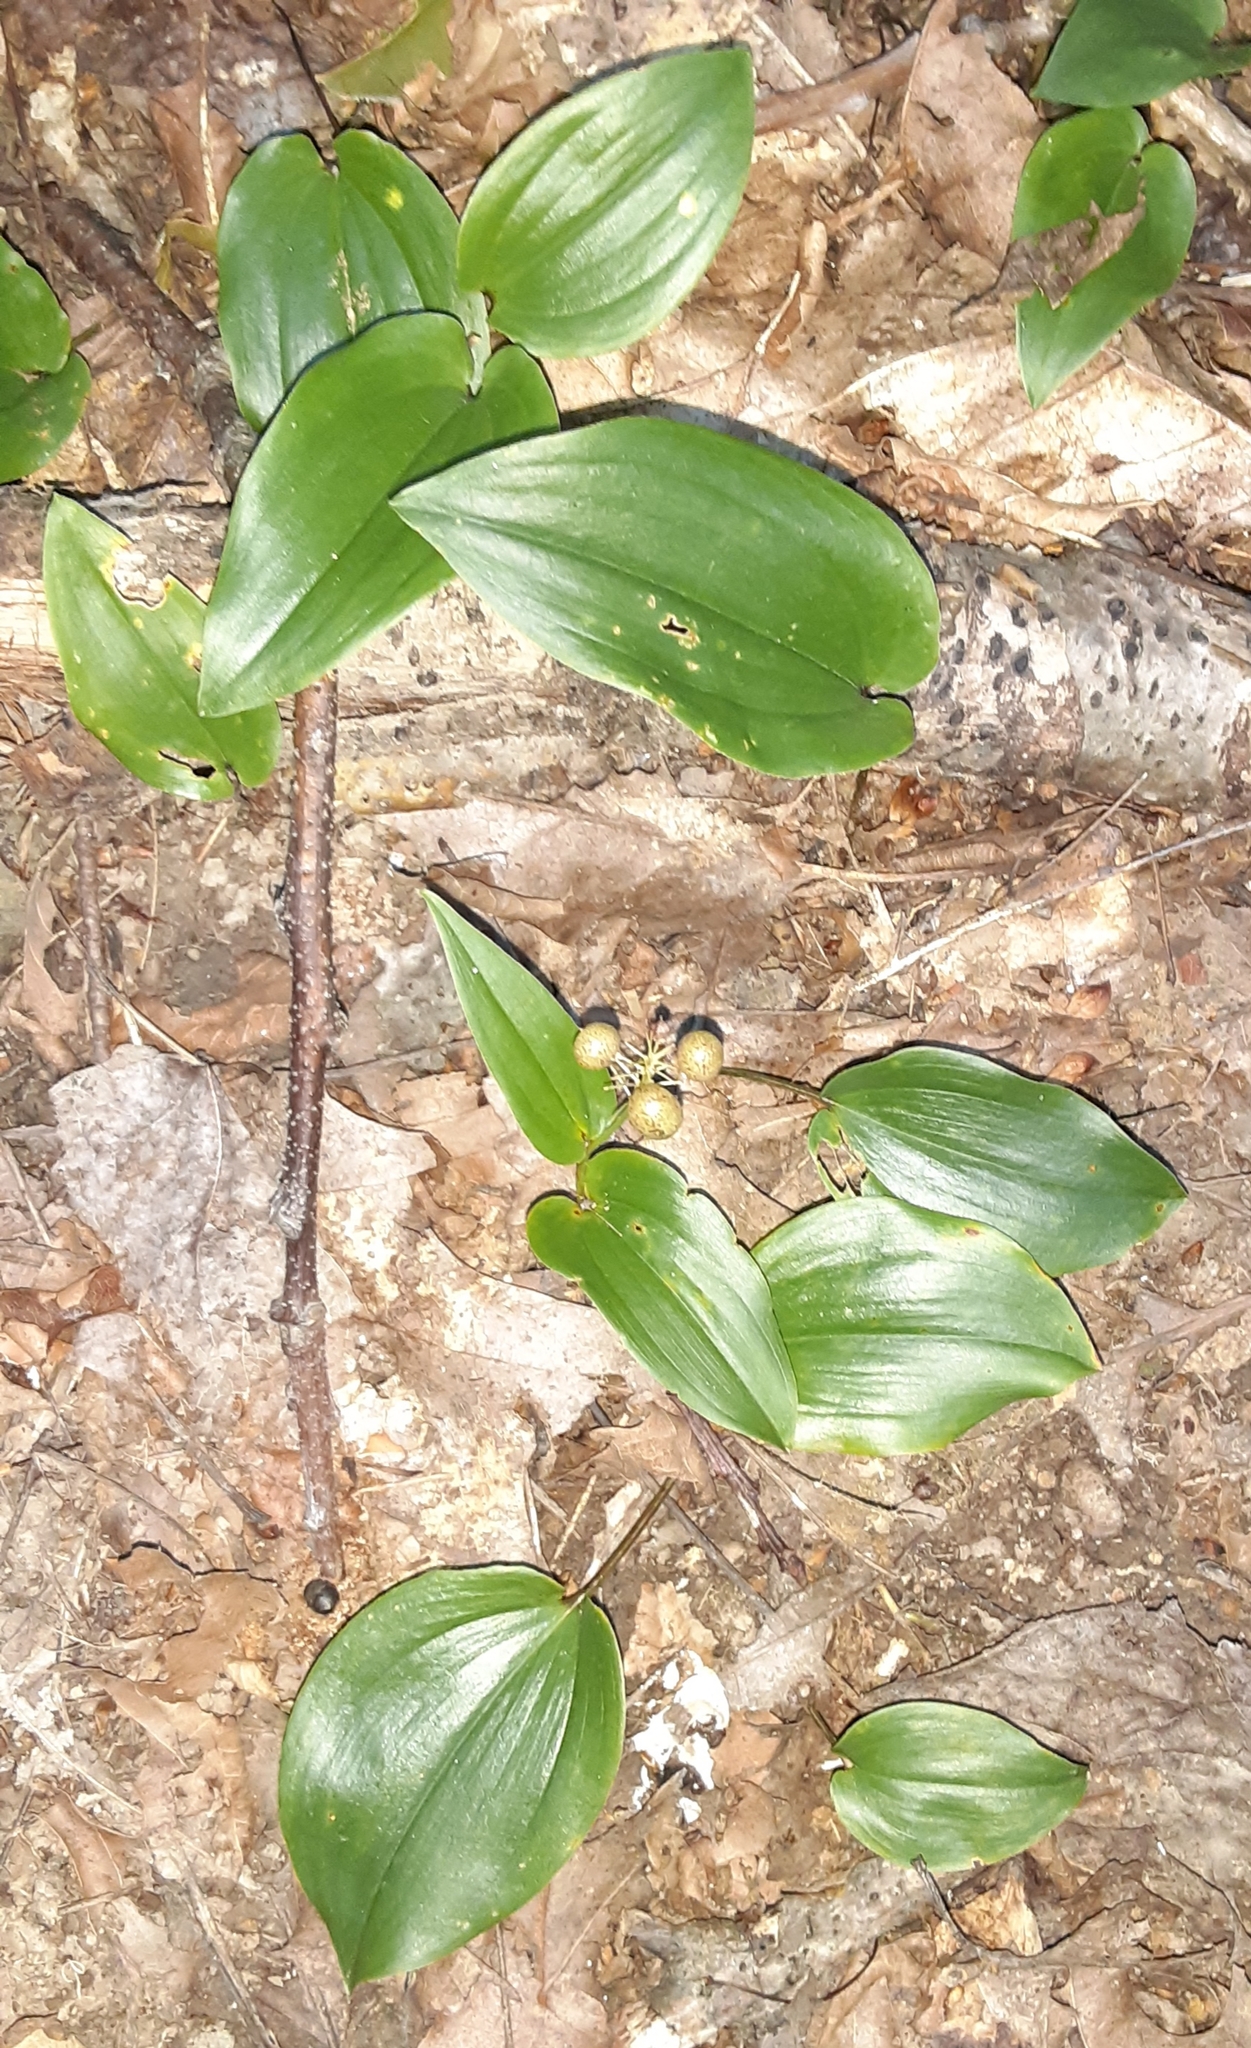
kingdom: Plantae
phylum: Tracheophyta
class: Liliopsida
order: Asparagales
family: Asparagaceae
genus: Maianthemum
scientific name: Maianthemum canadense
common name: False lily-of-the-valley
